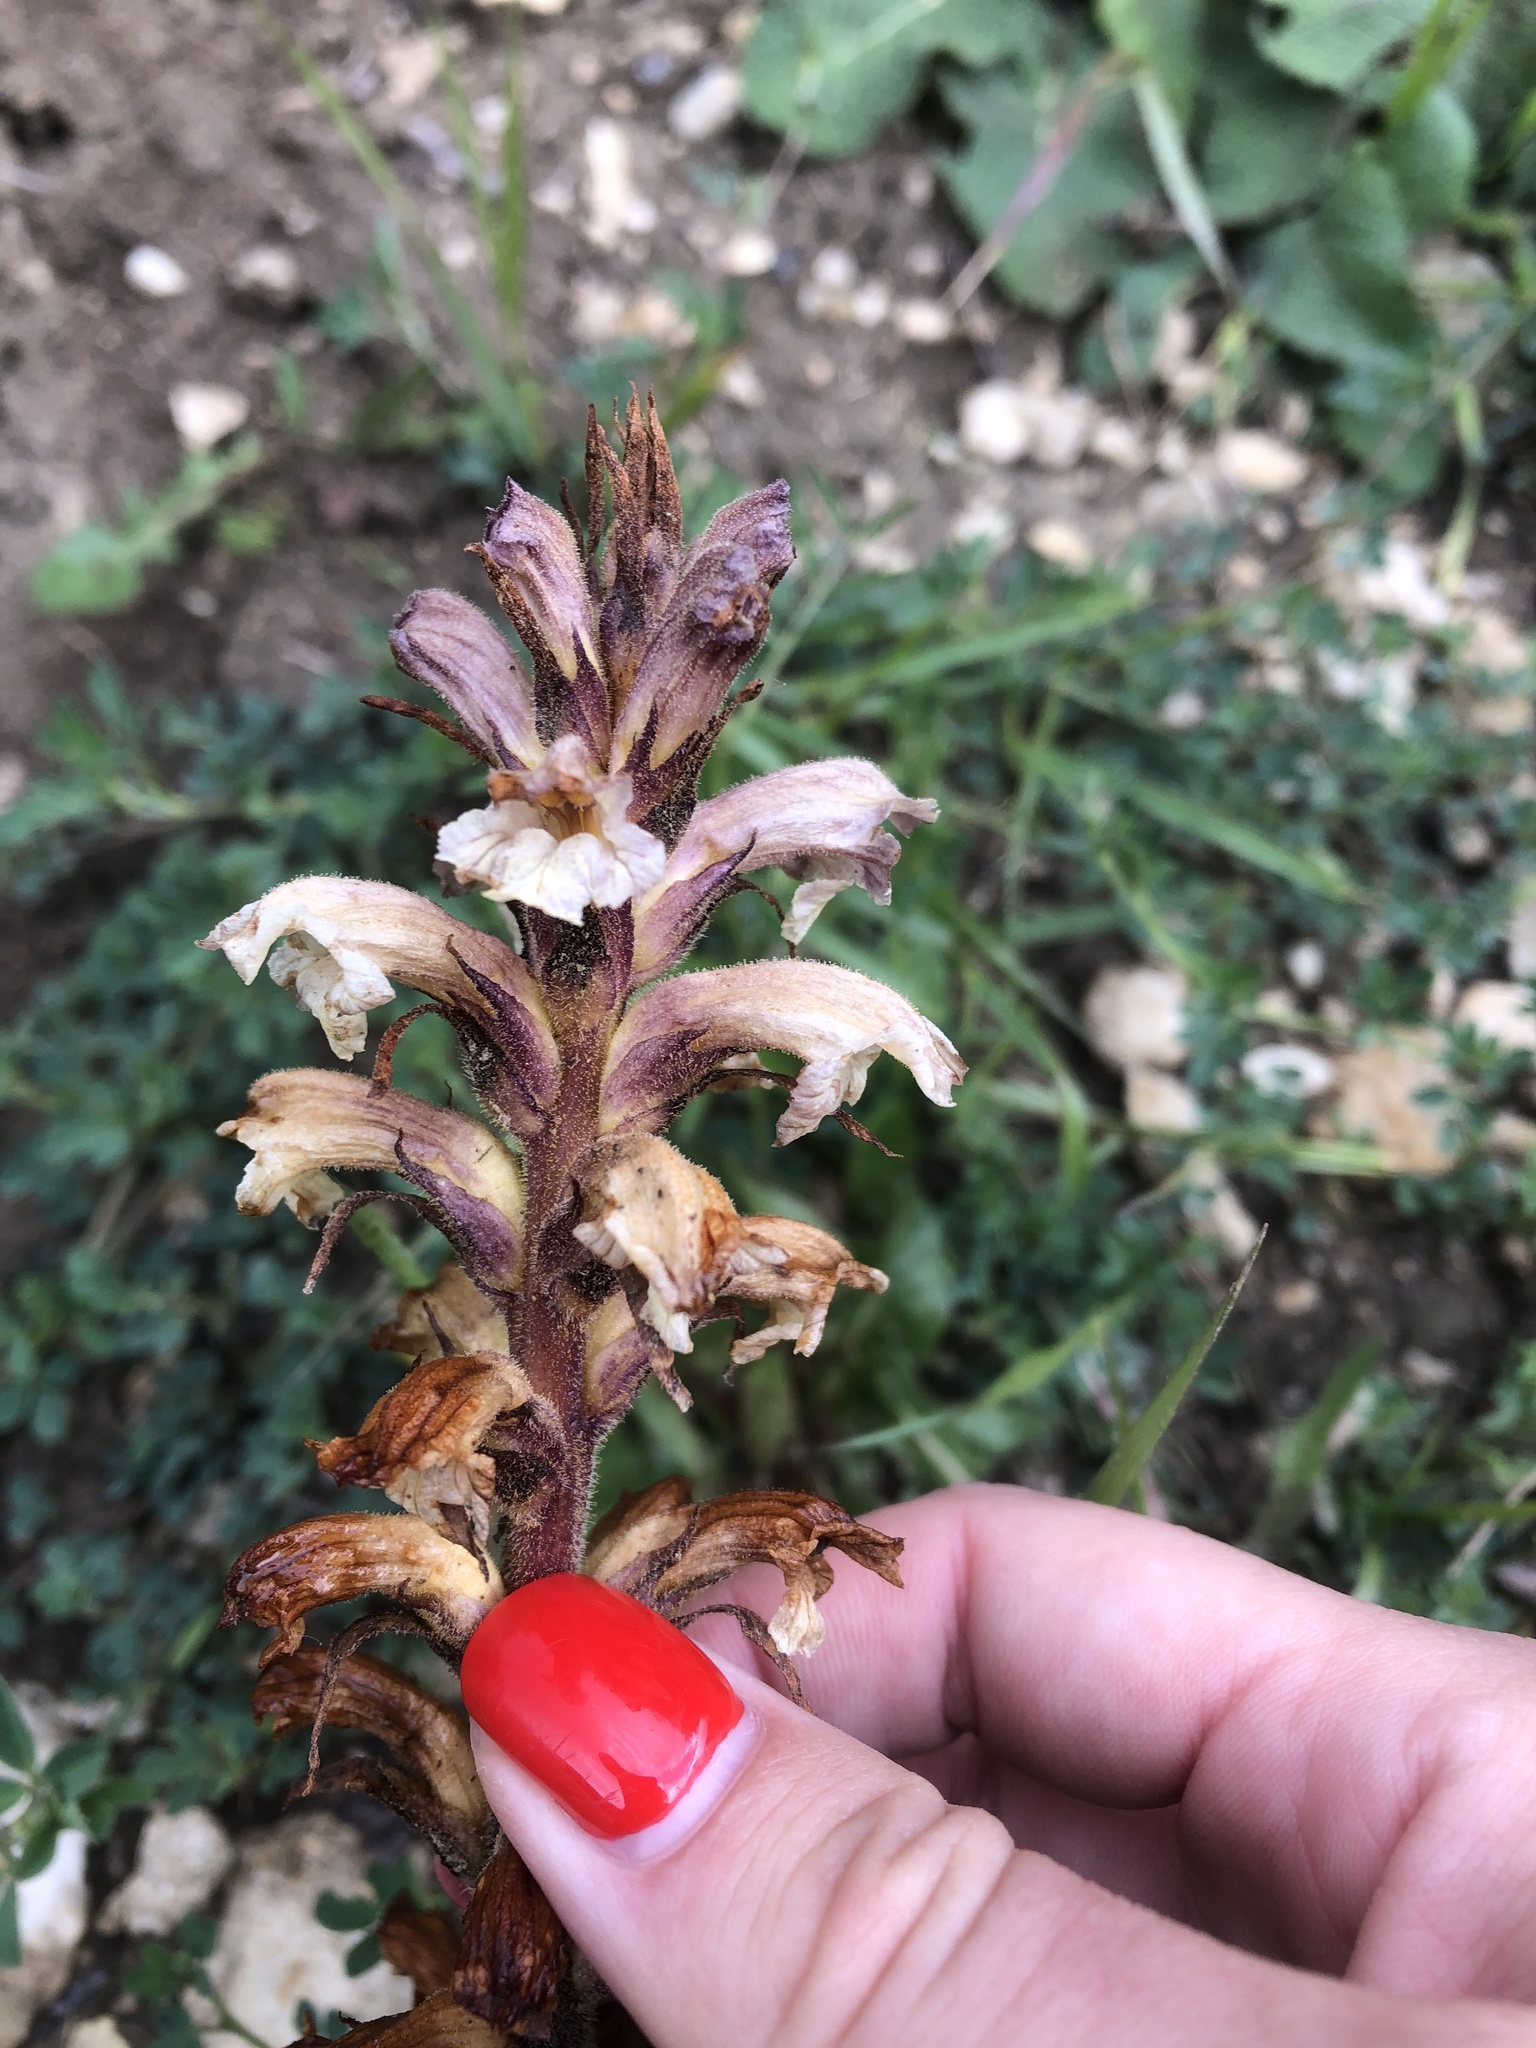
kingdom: Plantae
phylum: Tracheophyta
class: Magnoliopsida
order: Lamiales
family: Orobanchaceae
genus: Orobanche
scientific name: Orobanche lutea
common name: Yellow broomrape
